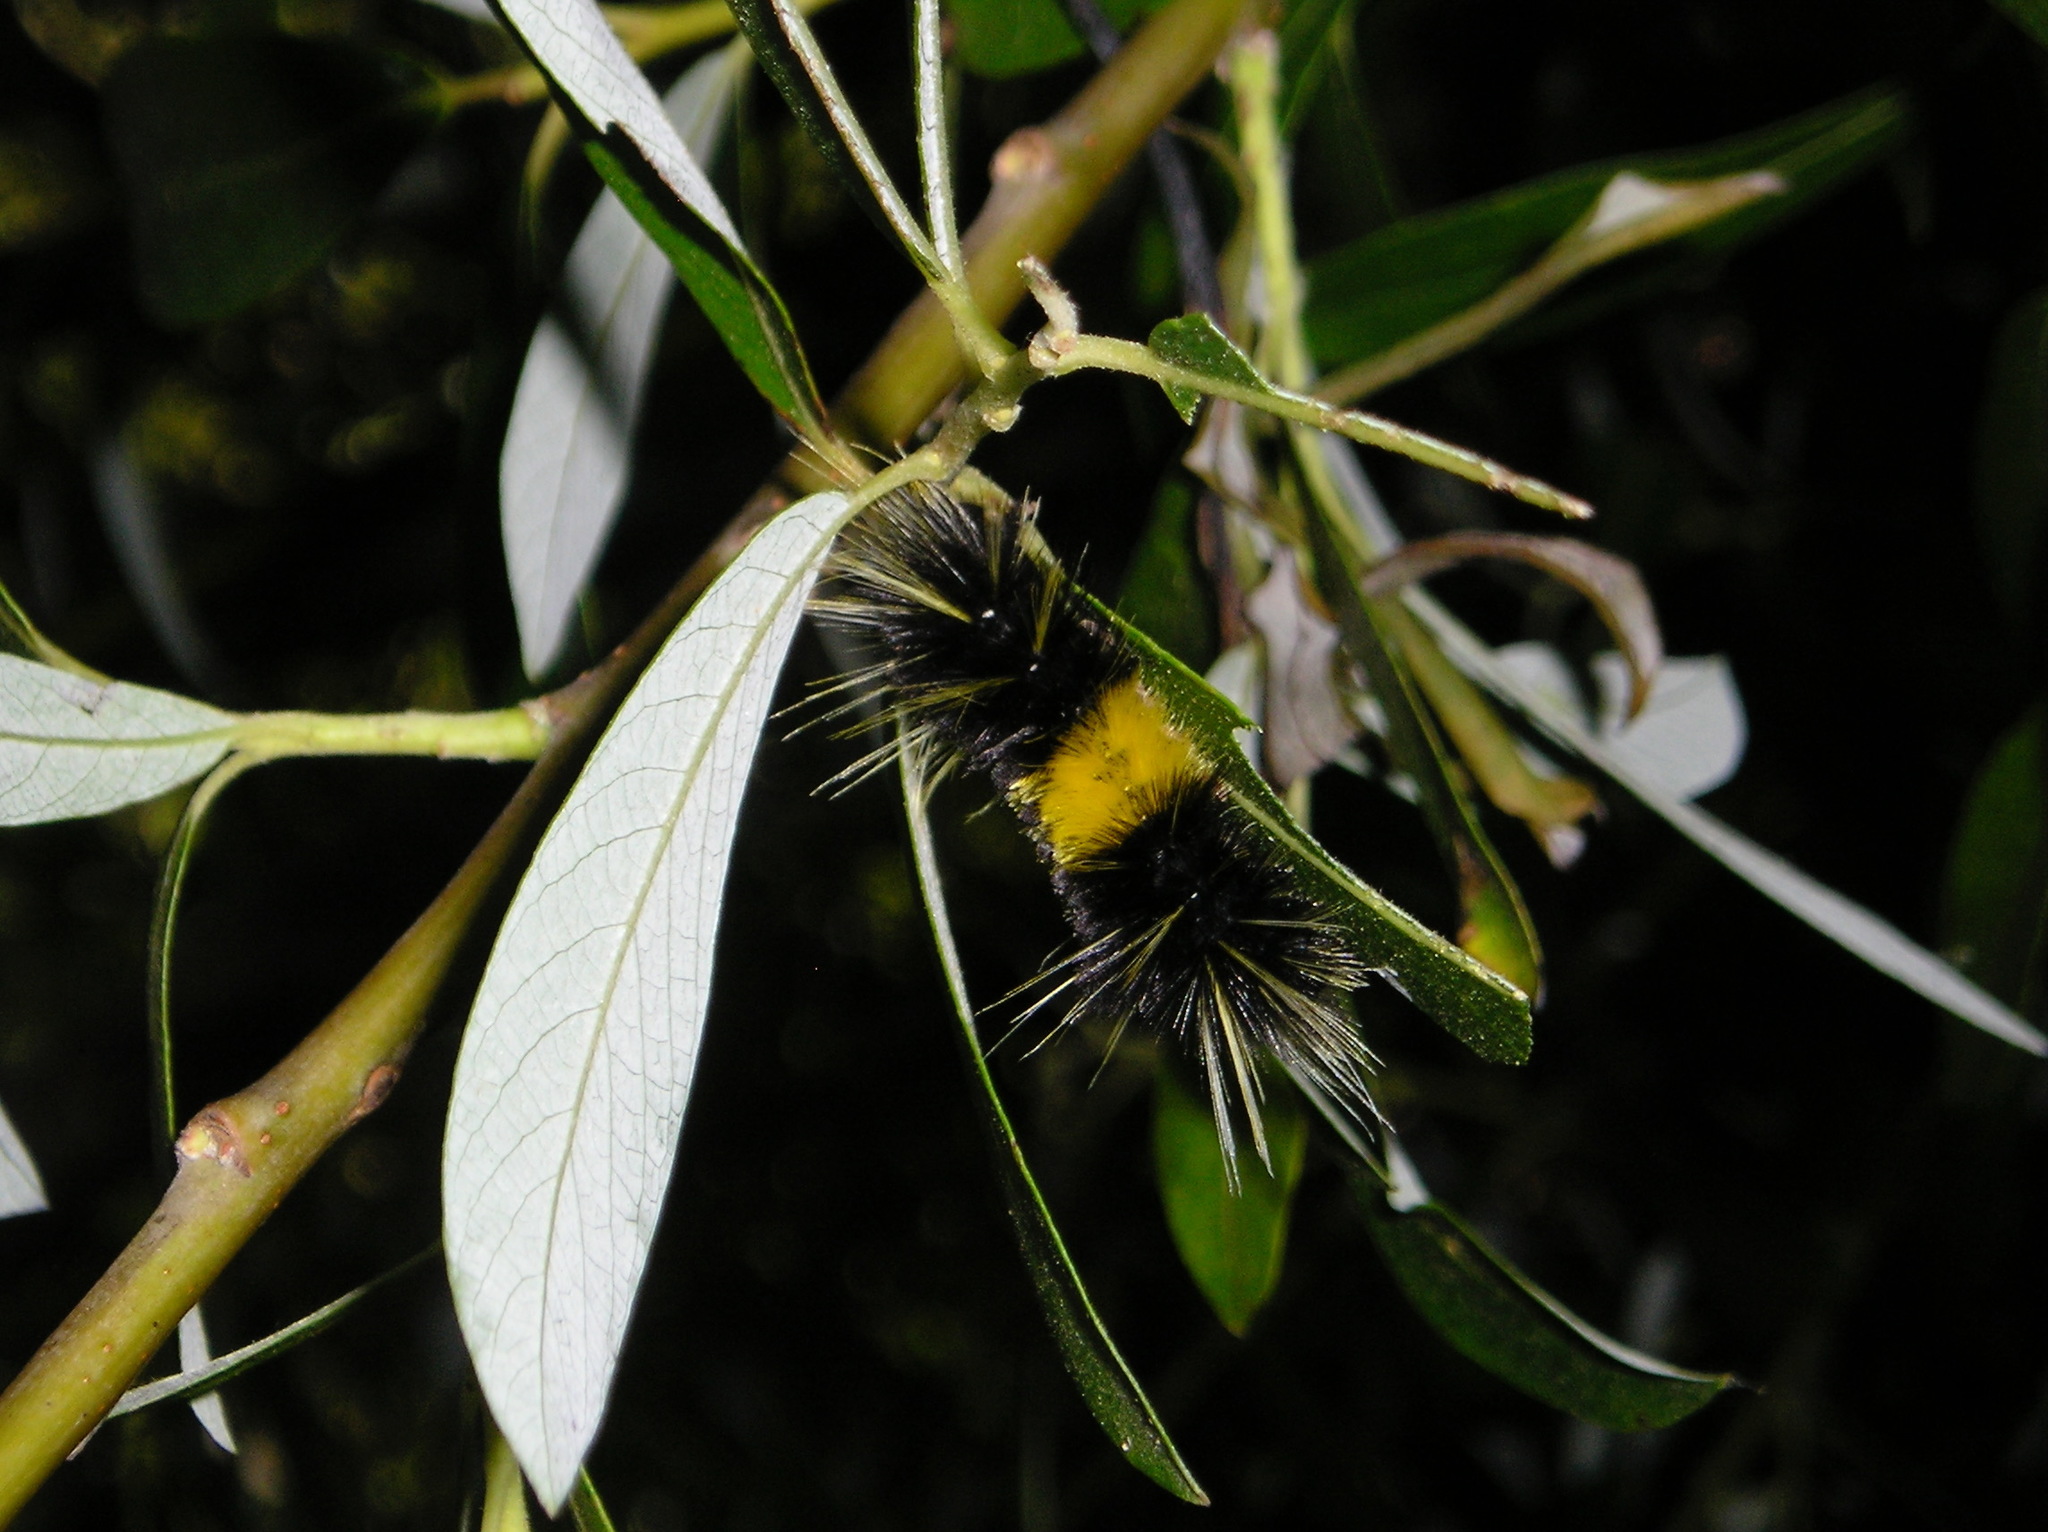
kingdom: Animalia
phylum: Arthropoda
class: Insecta
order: Lepidoptera
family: Erebidae
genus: Lophocampa
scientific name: Lophocampa maculata
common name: Spotted tussock moth
